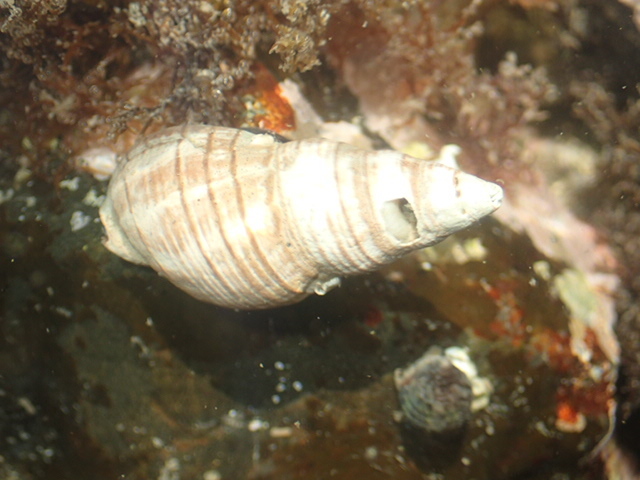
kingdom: Animalia
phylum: Mollusca
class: Gastropoda
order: Neogastropoda
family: Cominellidae
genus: Cominella
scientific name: Cominella virgata
